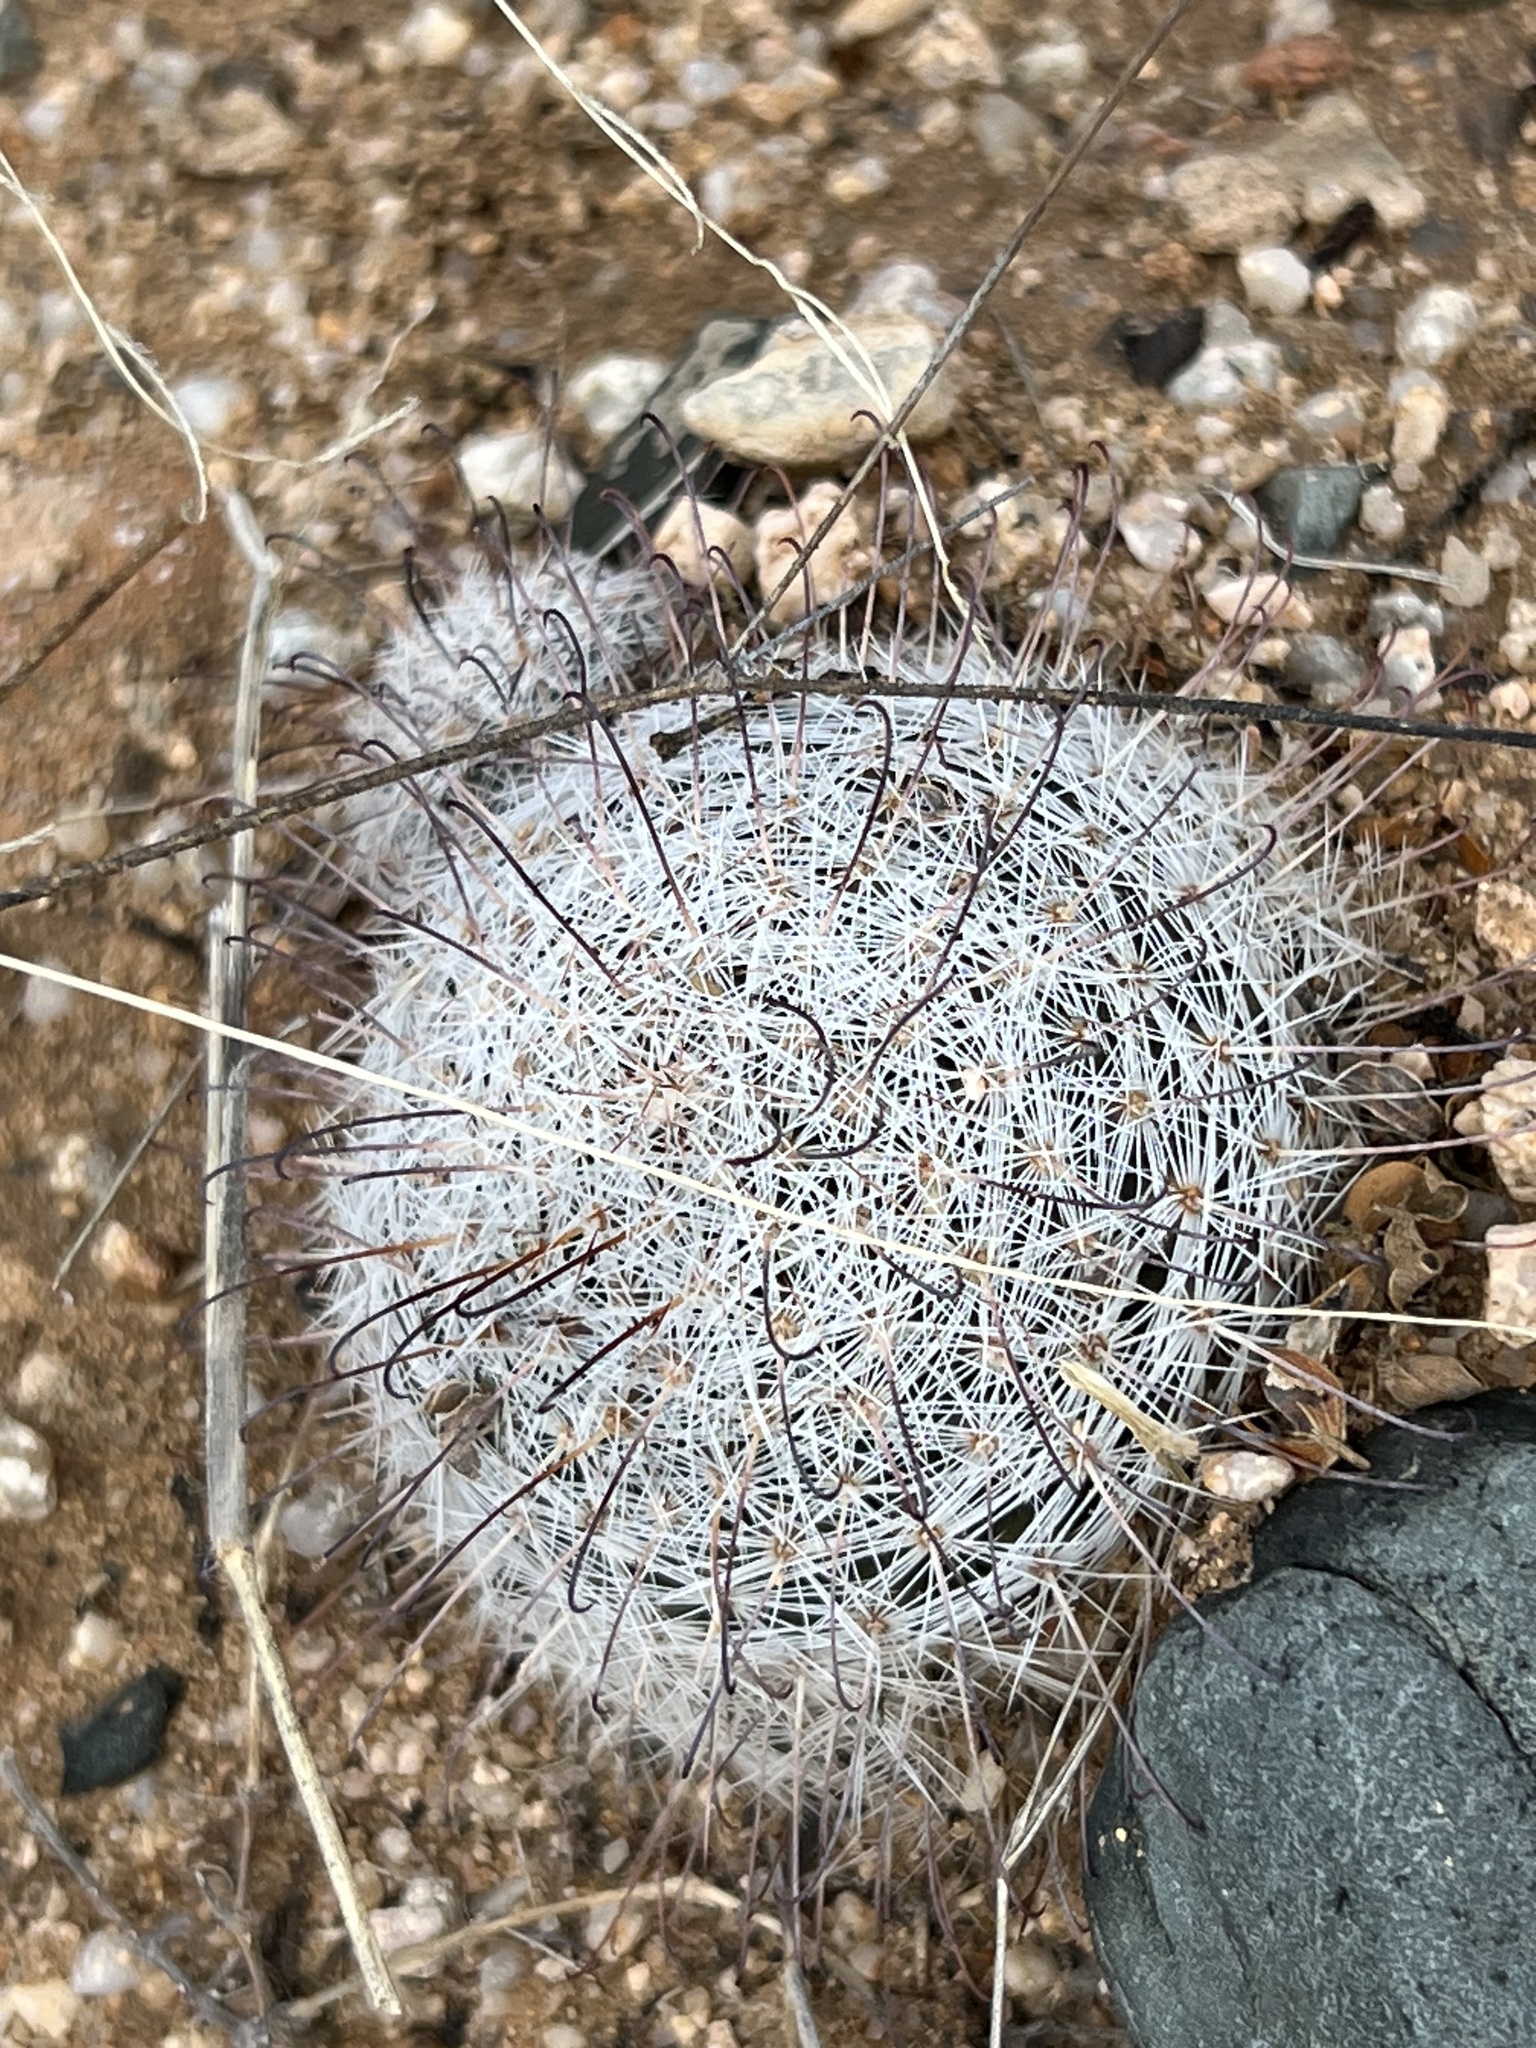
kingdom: Plantae
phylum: Tracheophyta
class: Magnoliopsida
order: Caryophyllales
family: Cactaceae
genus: Cochemiea
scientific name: Cochemiea grahamii
